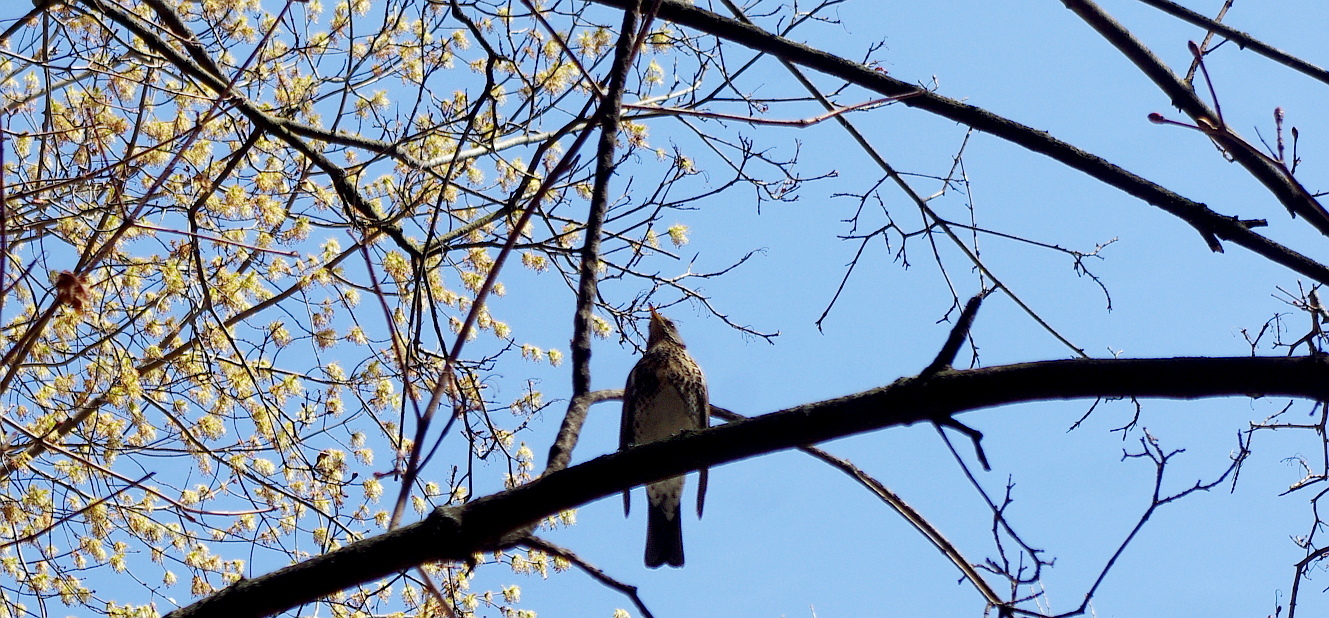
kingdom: Animalia
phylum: Chordata
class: Aves
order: Passeriformes
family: Turdidae
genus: Turdus
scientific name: Turdus pilaris
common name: Fieldfare
